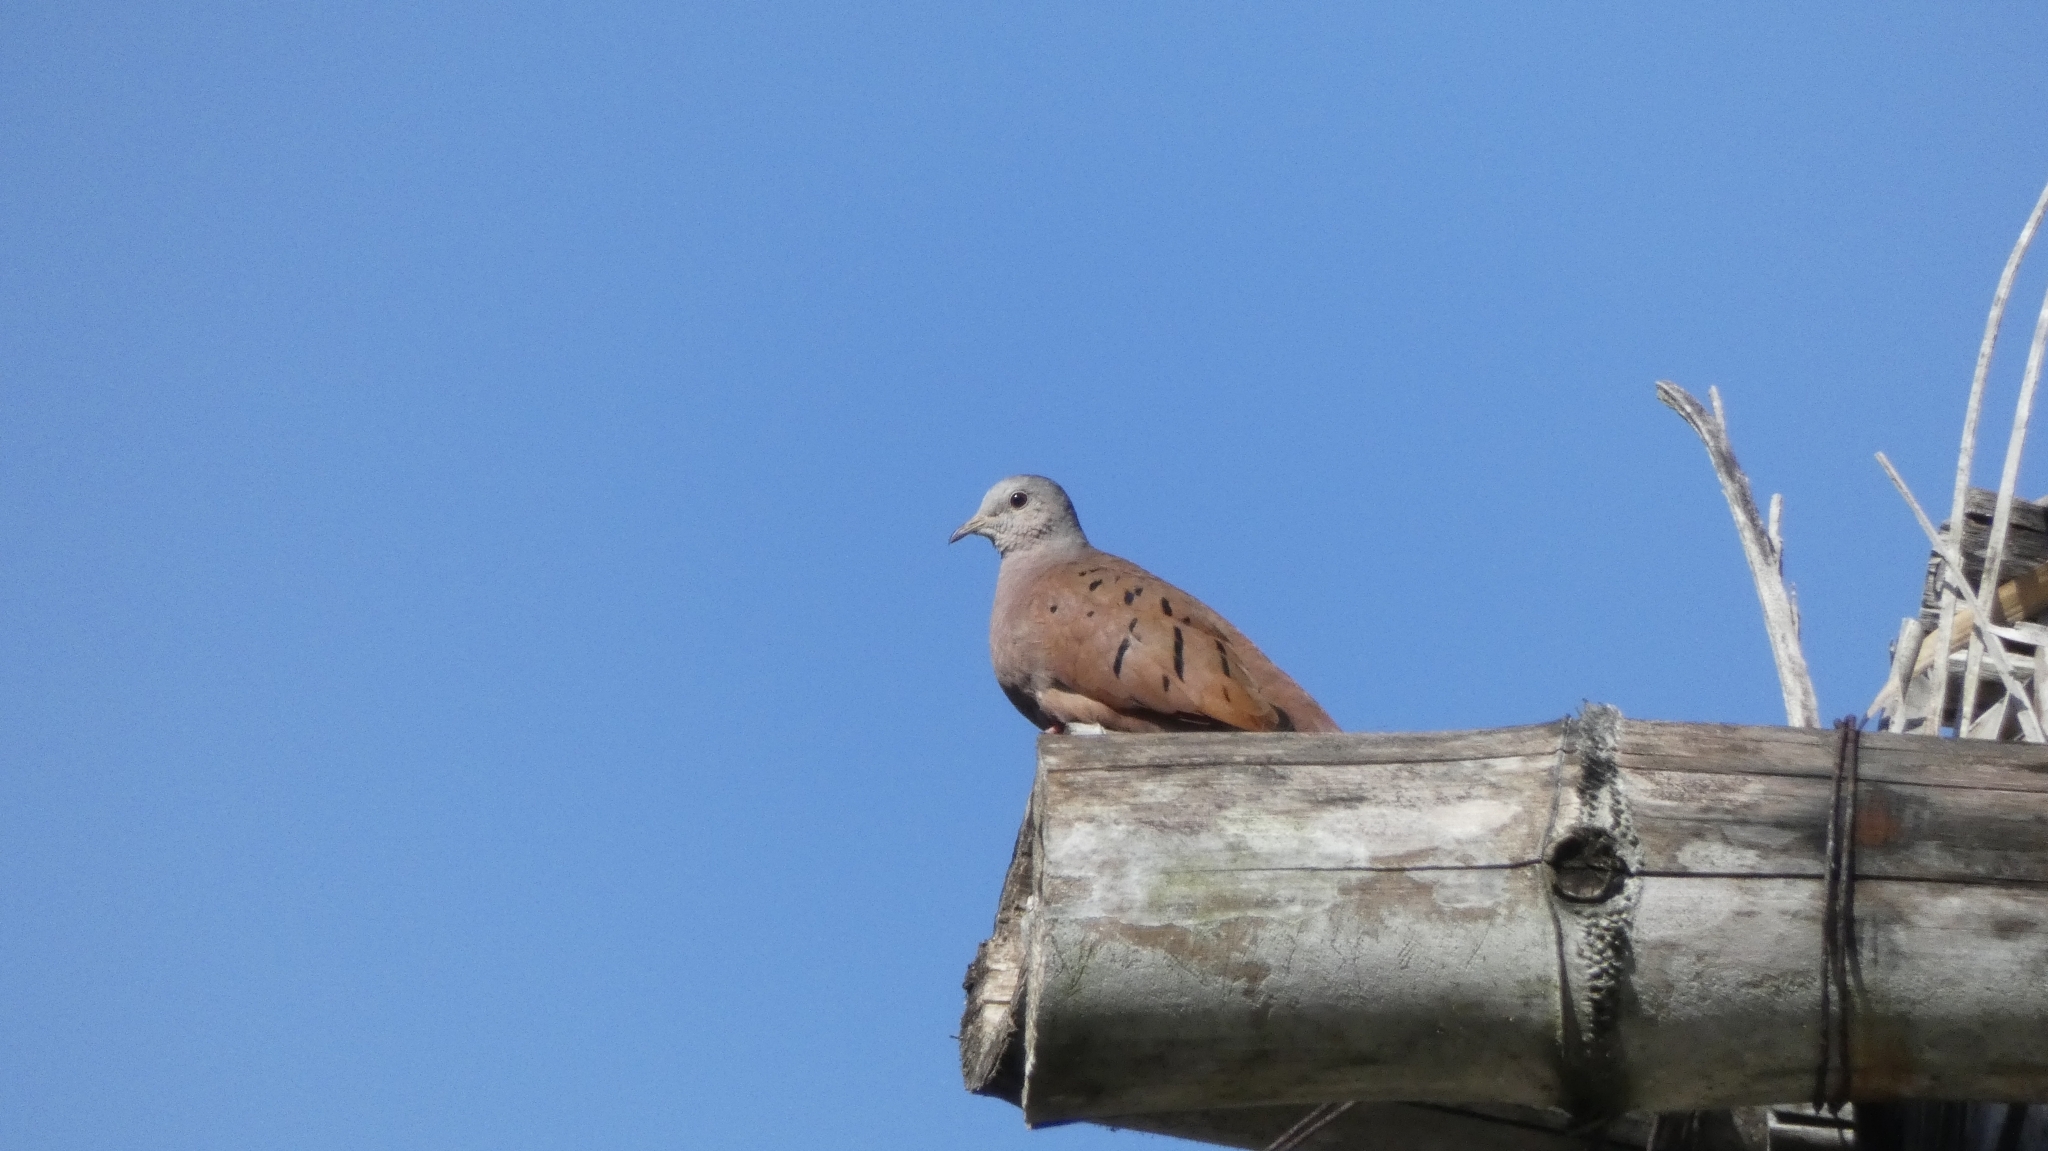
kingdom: Animalia
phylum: Chordata
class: Aves
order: Columbiformes
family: Columbidae
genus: Columbina
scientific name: Columbina talpacoti
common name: Ruddy ground dove
